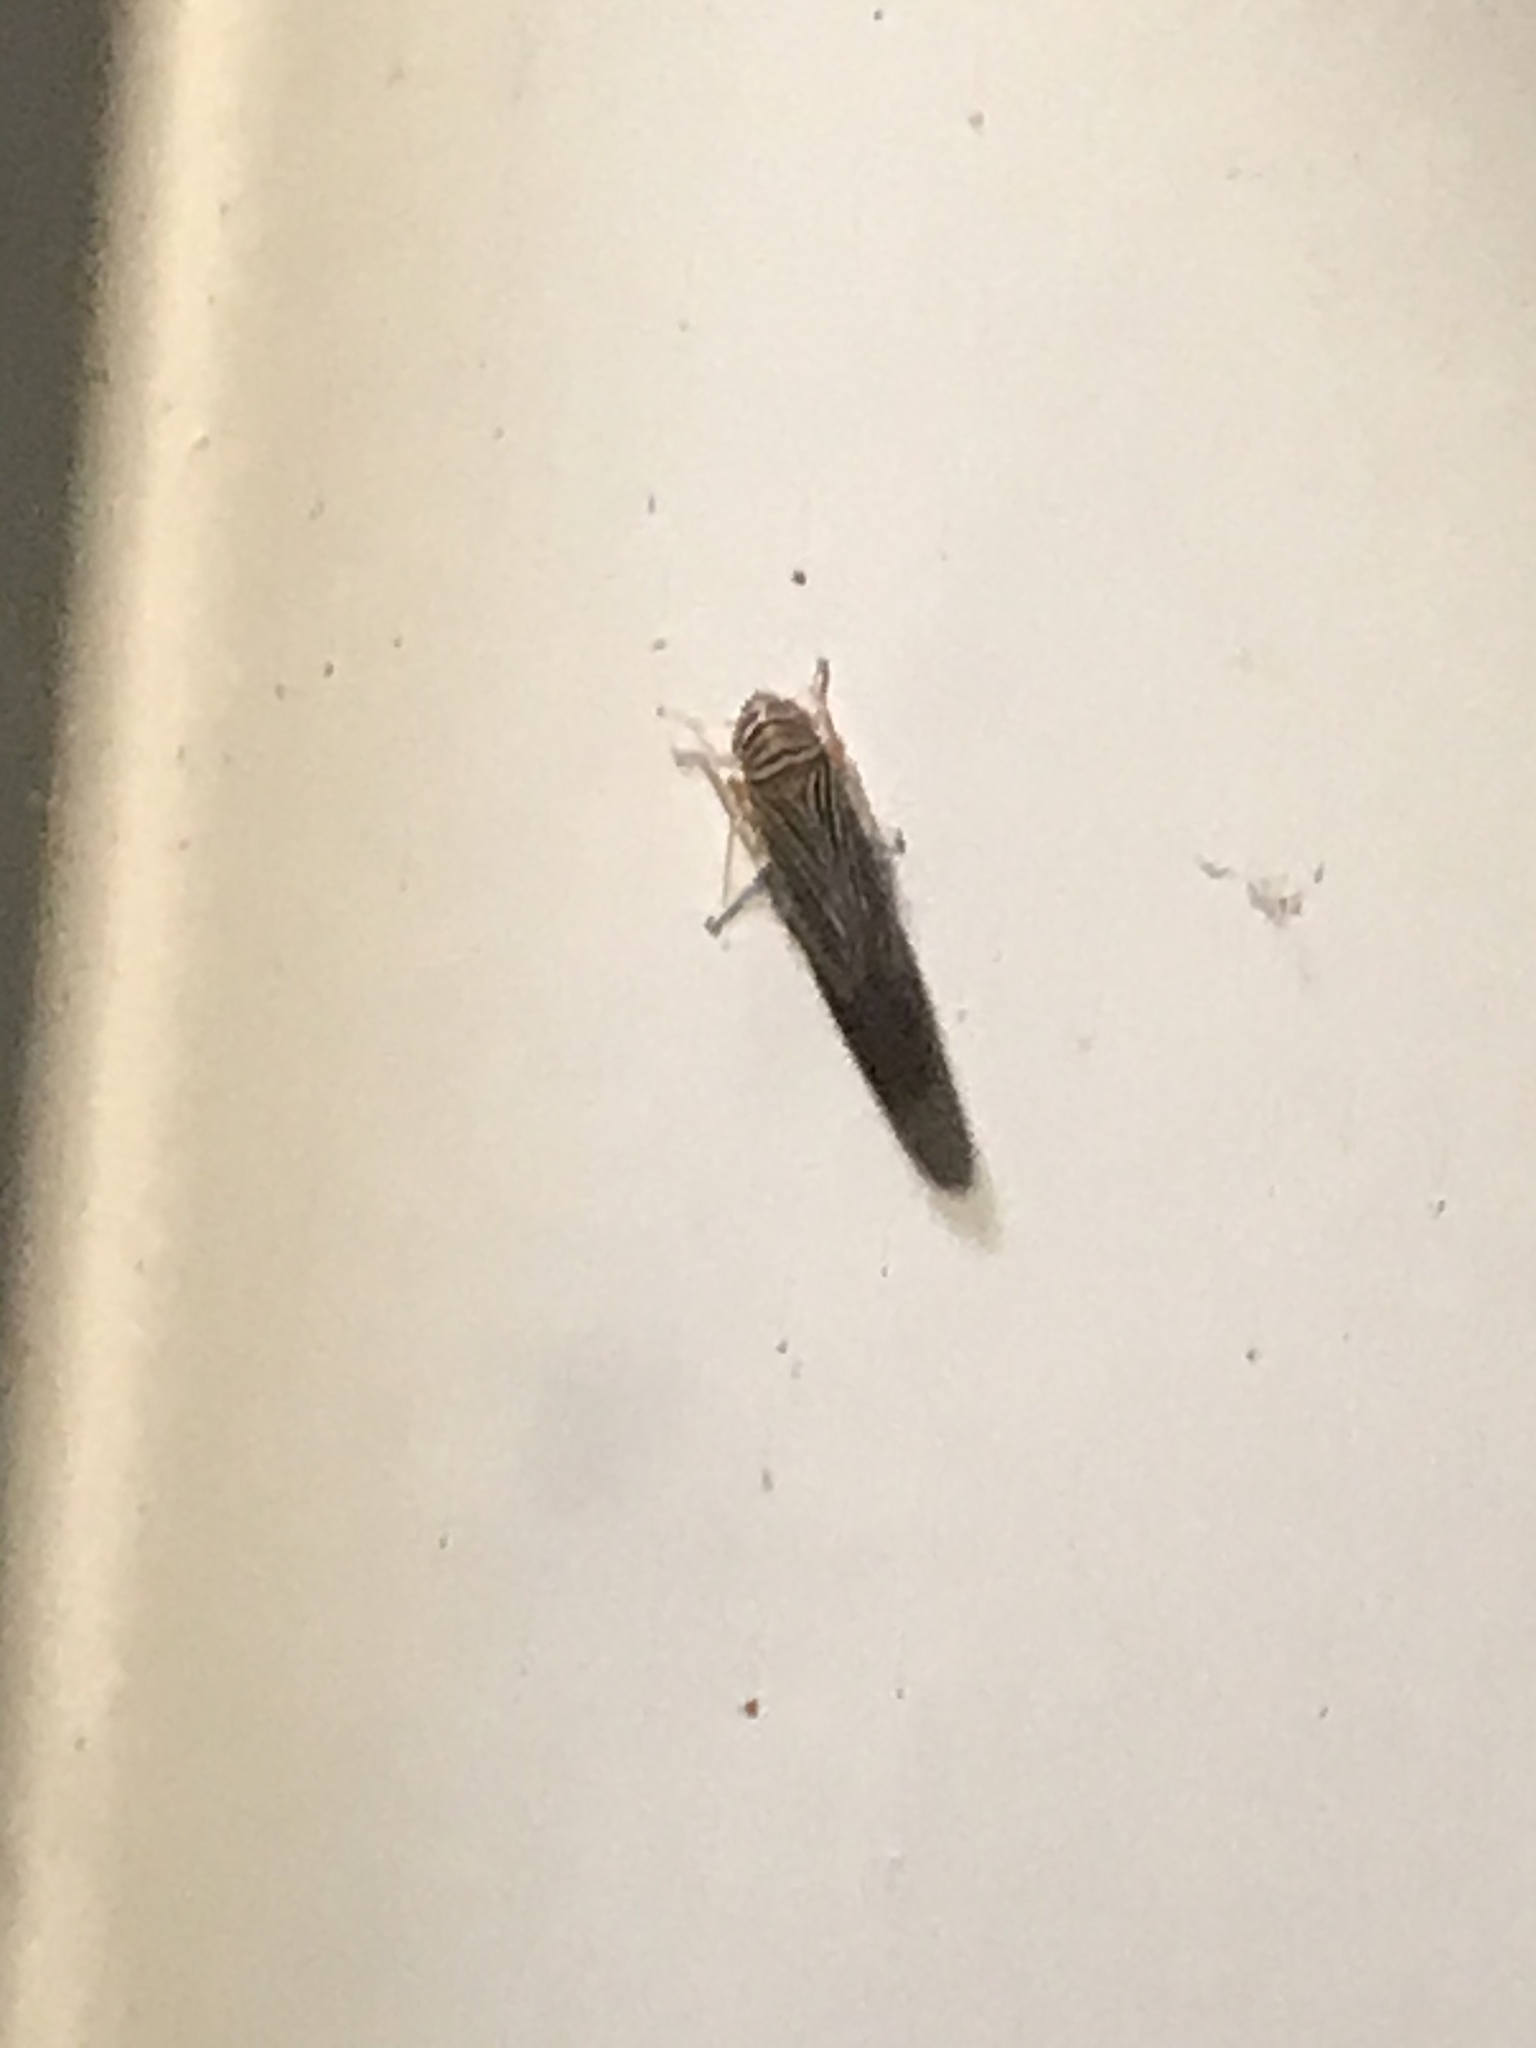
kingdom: Animalia
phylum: Arthropoda
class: Insecta
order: Hemiptera
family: Cicadellidae
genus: Tylozygus
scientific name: Tylozygus bifidus
